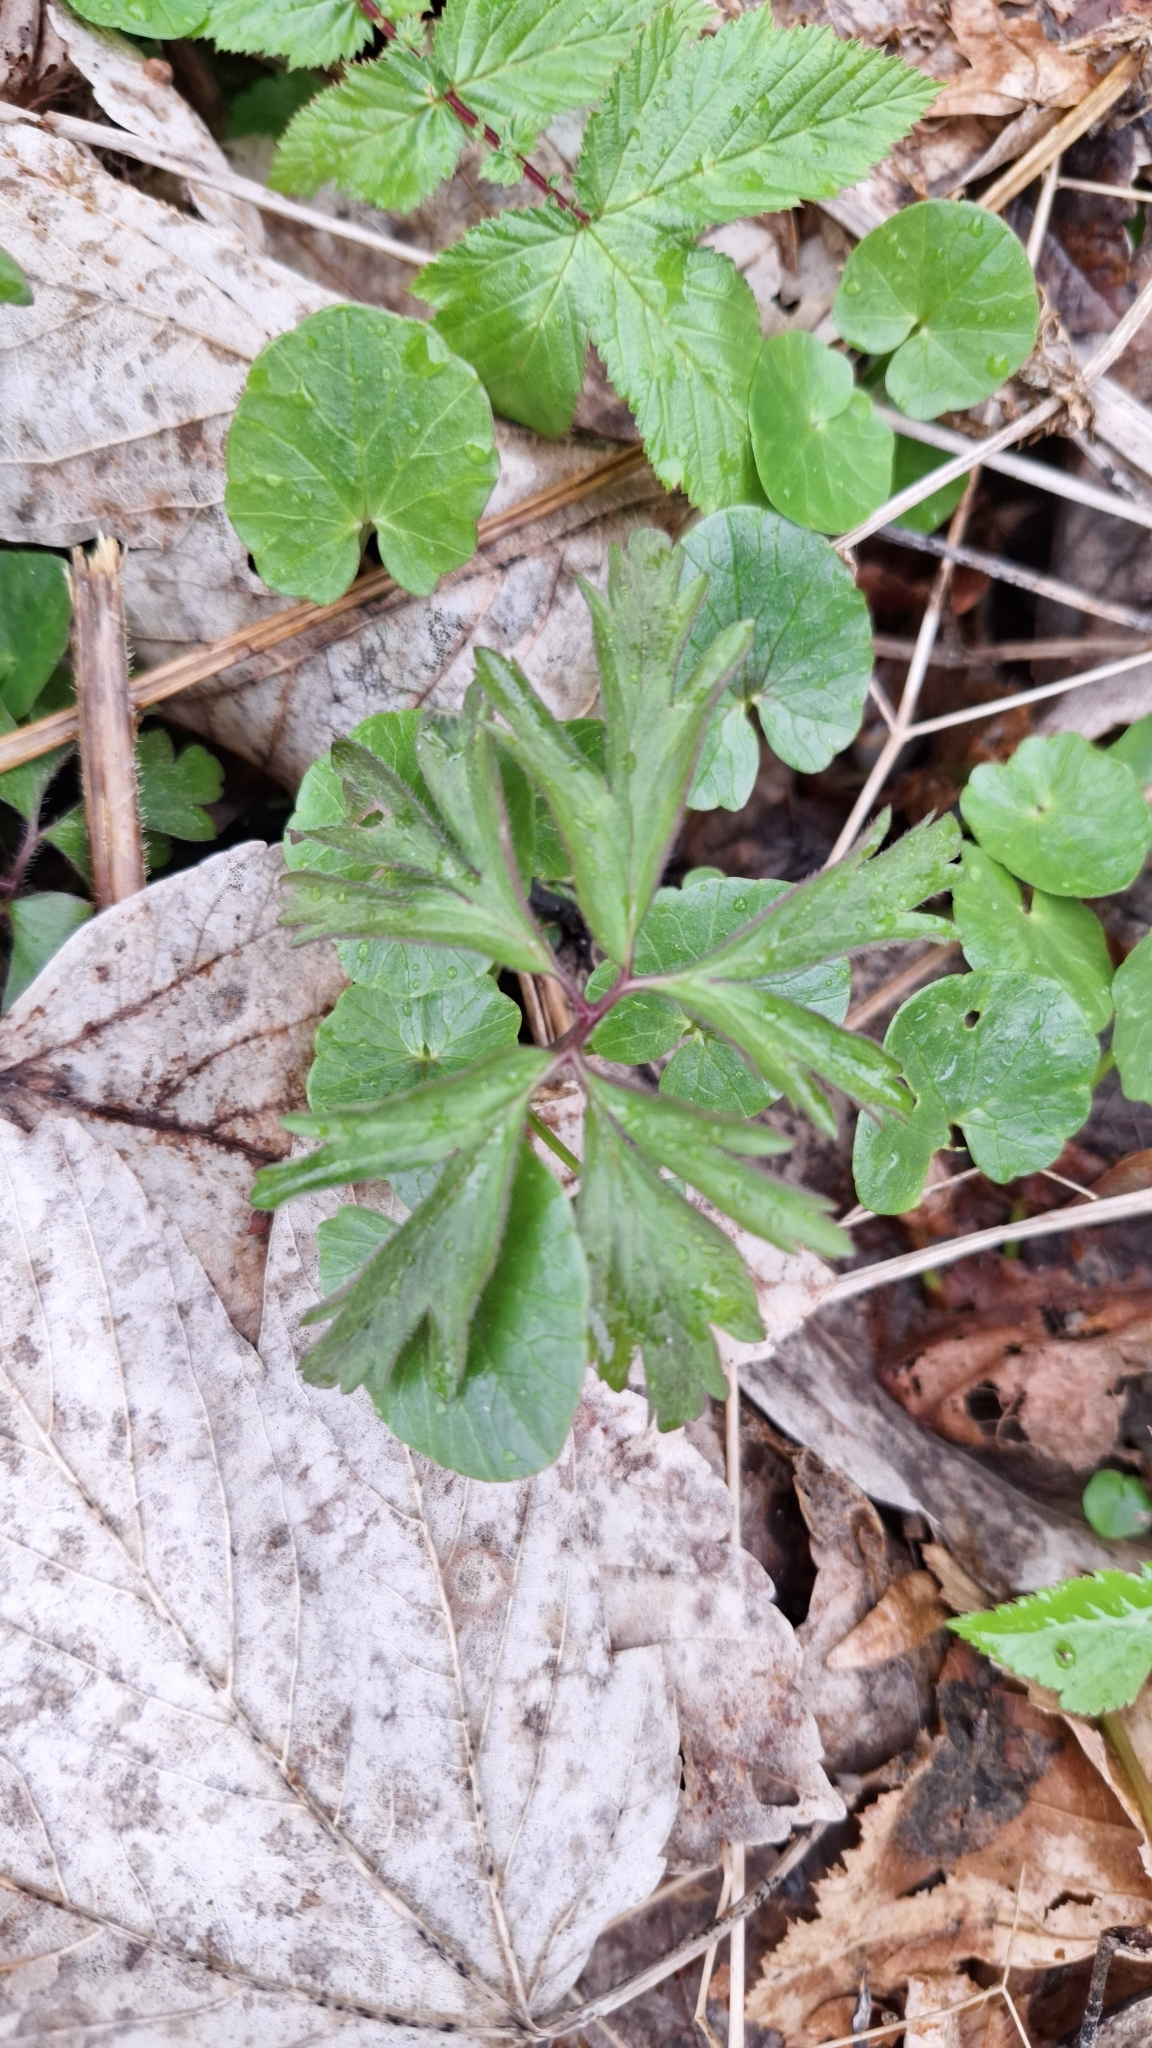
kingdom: Plantae
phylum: Tracheophyta
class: Magnoliopsida
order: Ranunculales
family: Ranunculaceae
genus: Anemone
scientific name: Anemone nemorosa
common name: Wood anemone
